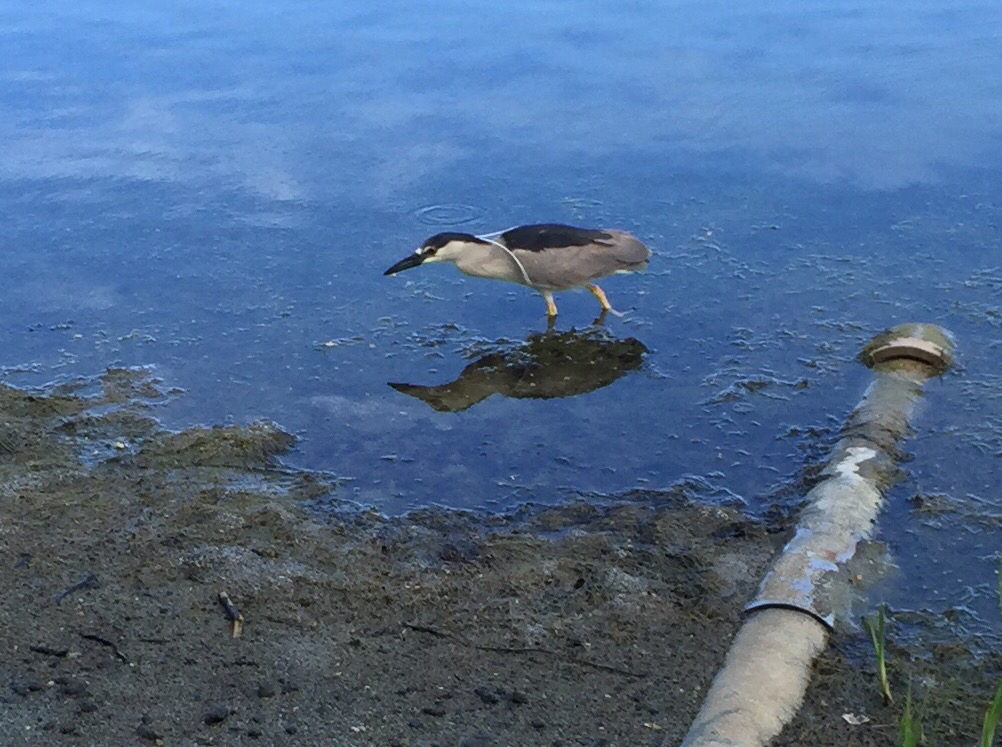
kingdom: Animalia
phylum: Chordata
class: Aves
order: Pelecaniformes
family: Ardeidae
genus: Nycticorax
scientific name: Nycticorax nycticorax
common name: Black-crowned night heron
